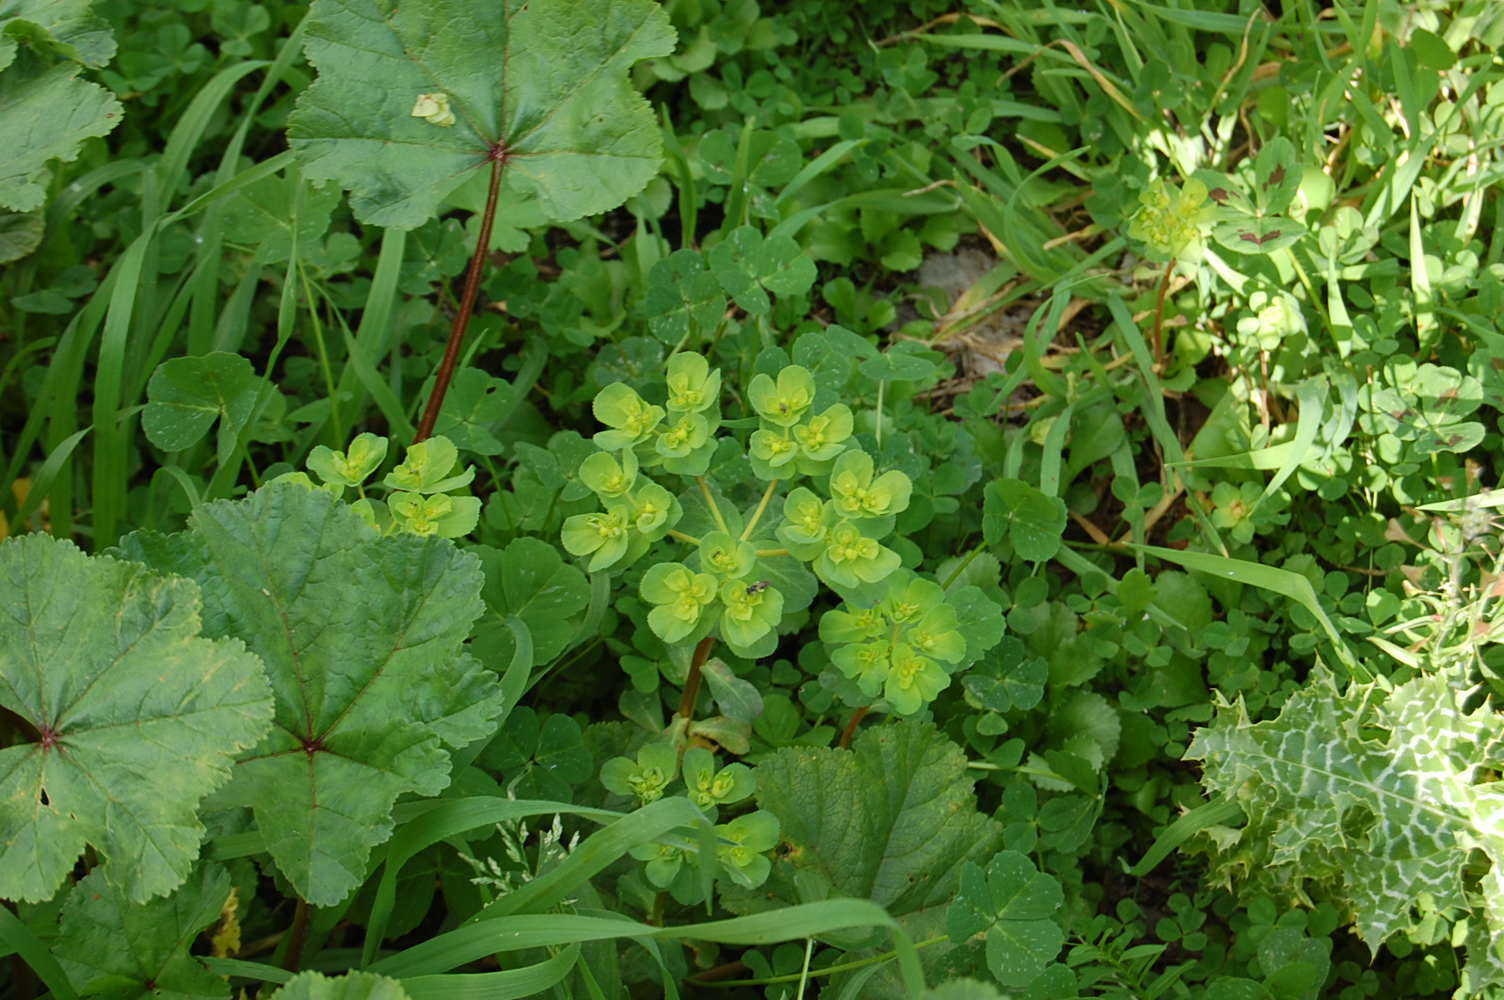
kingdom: Plantae
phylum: Tracheophyta
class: Magnoliopsida
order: Malpighiales
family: Euphorbiaceae
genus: Euphorbia
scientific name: Euphorbia helioscopia
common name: Sun spurge
